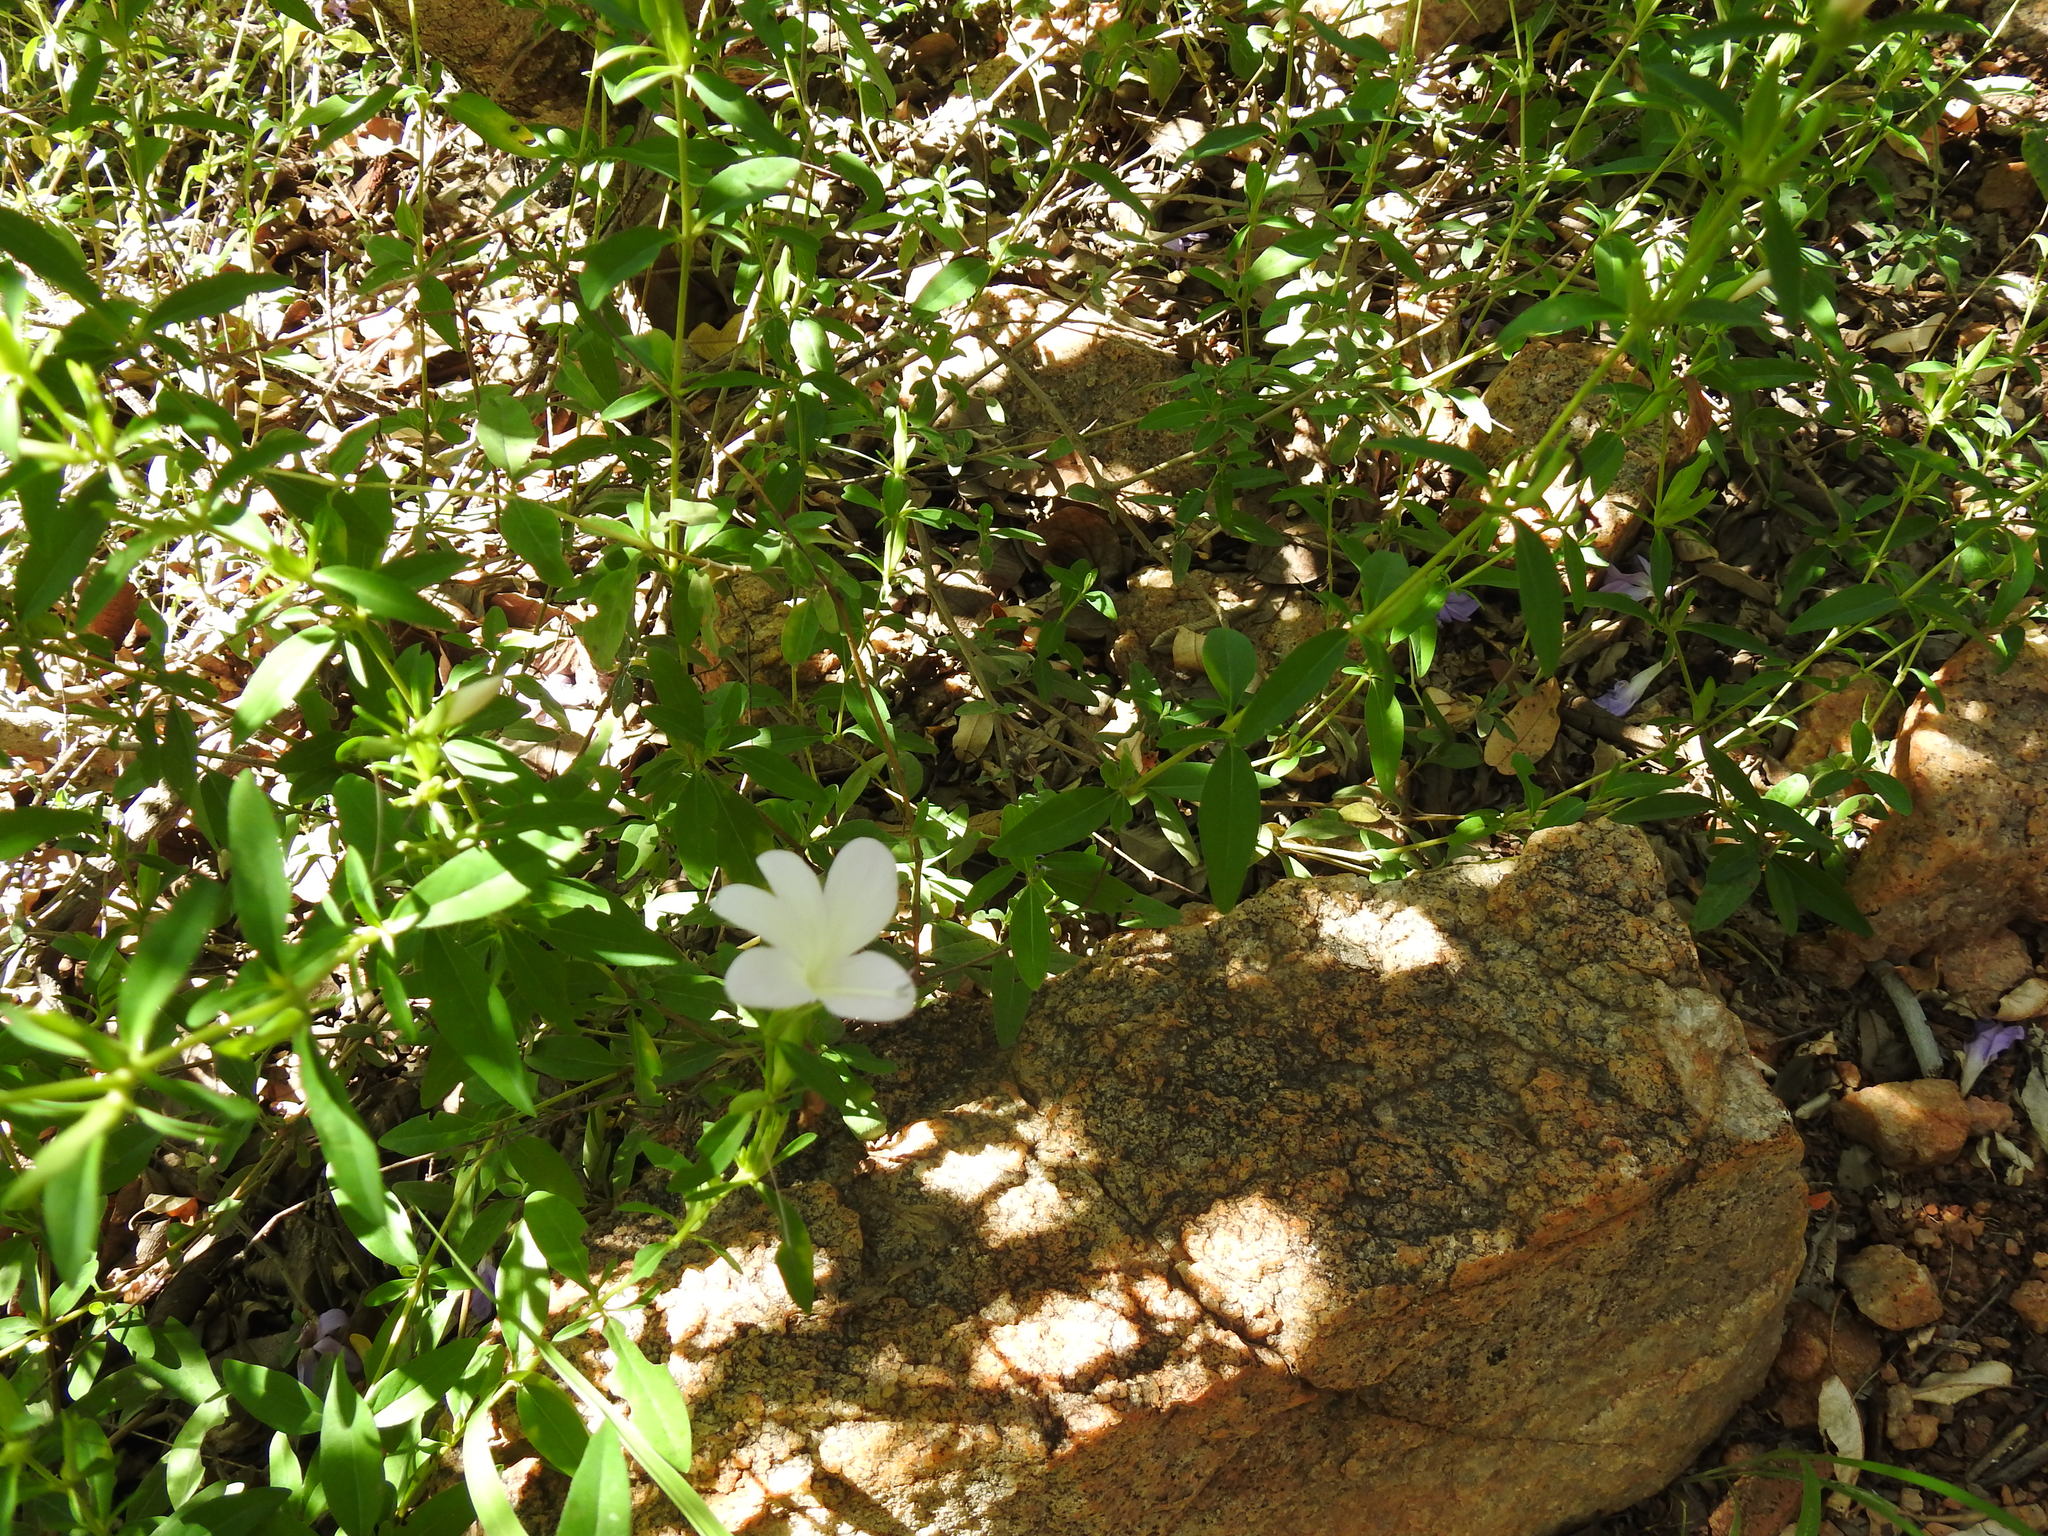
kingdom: Plantae
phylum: Tracheophyta
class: Magnoliopsida
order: Lamiales
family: Acanthaceae
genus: Barleria
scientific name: Barleria pretoriensis
